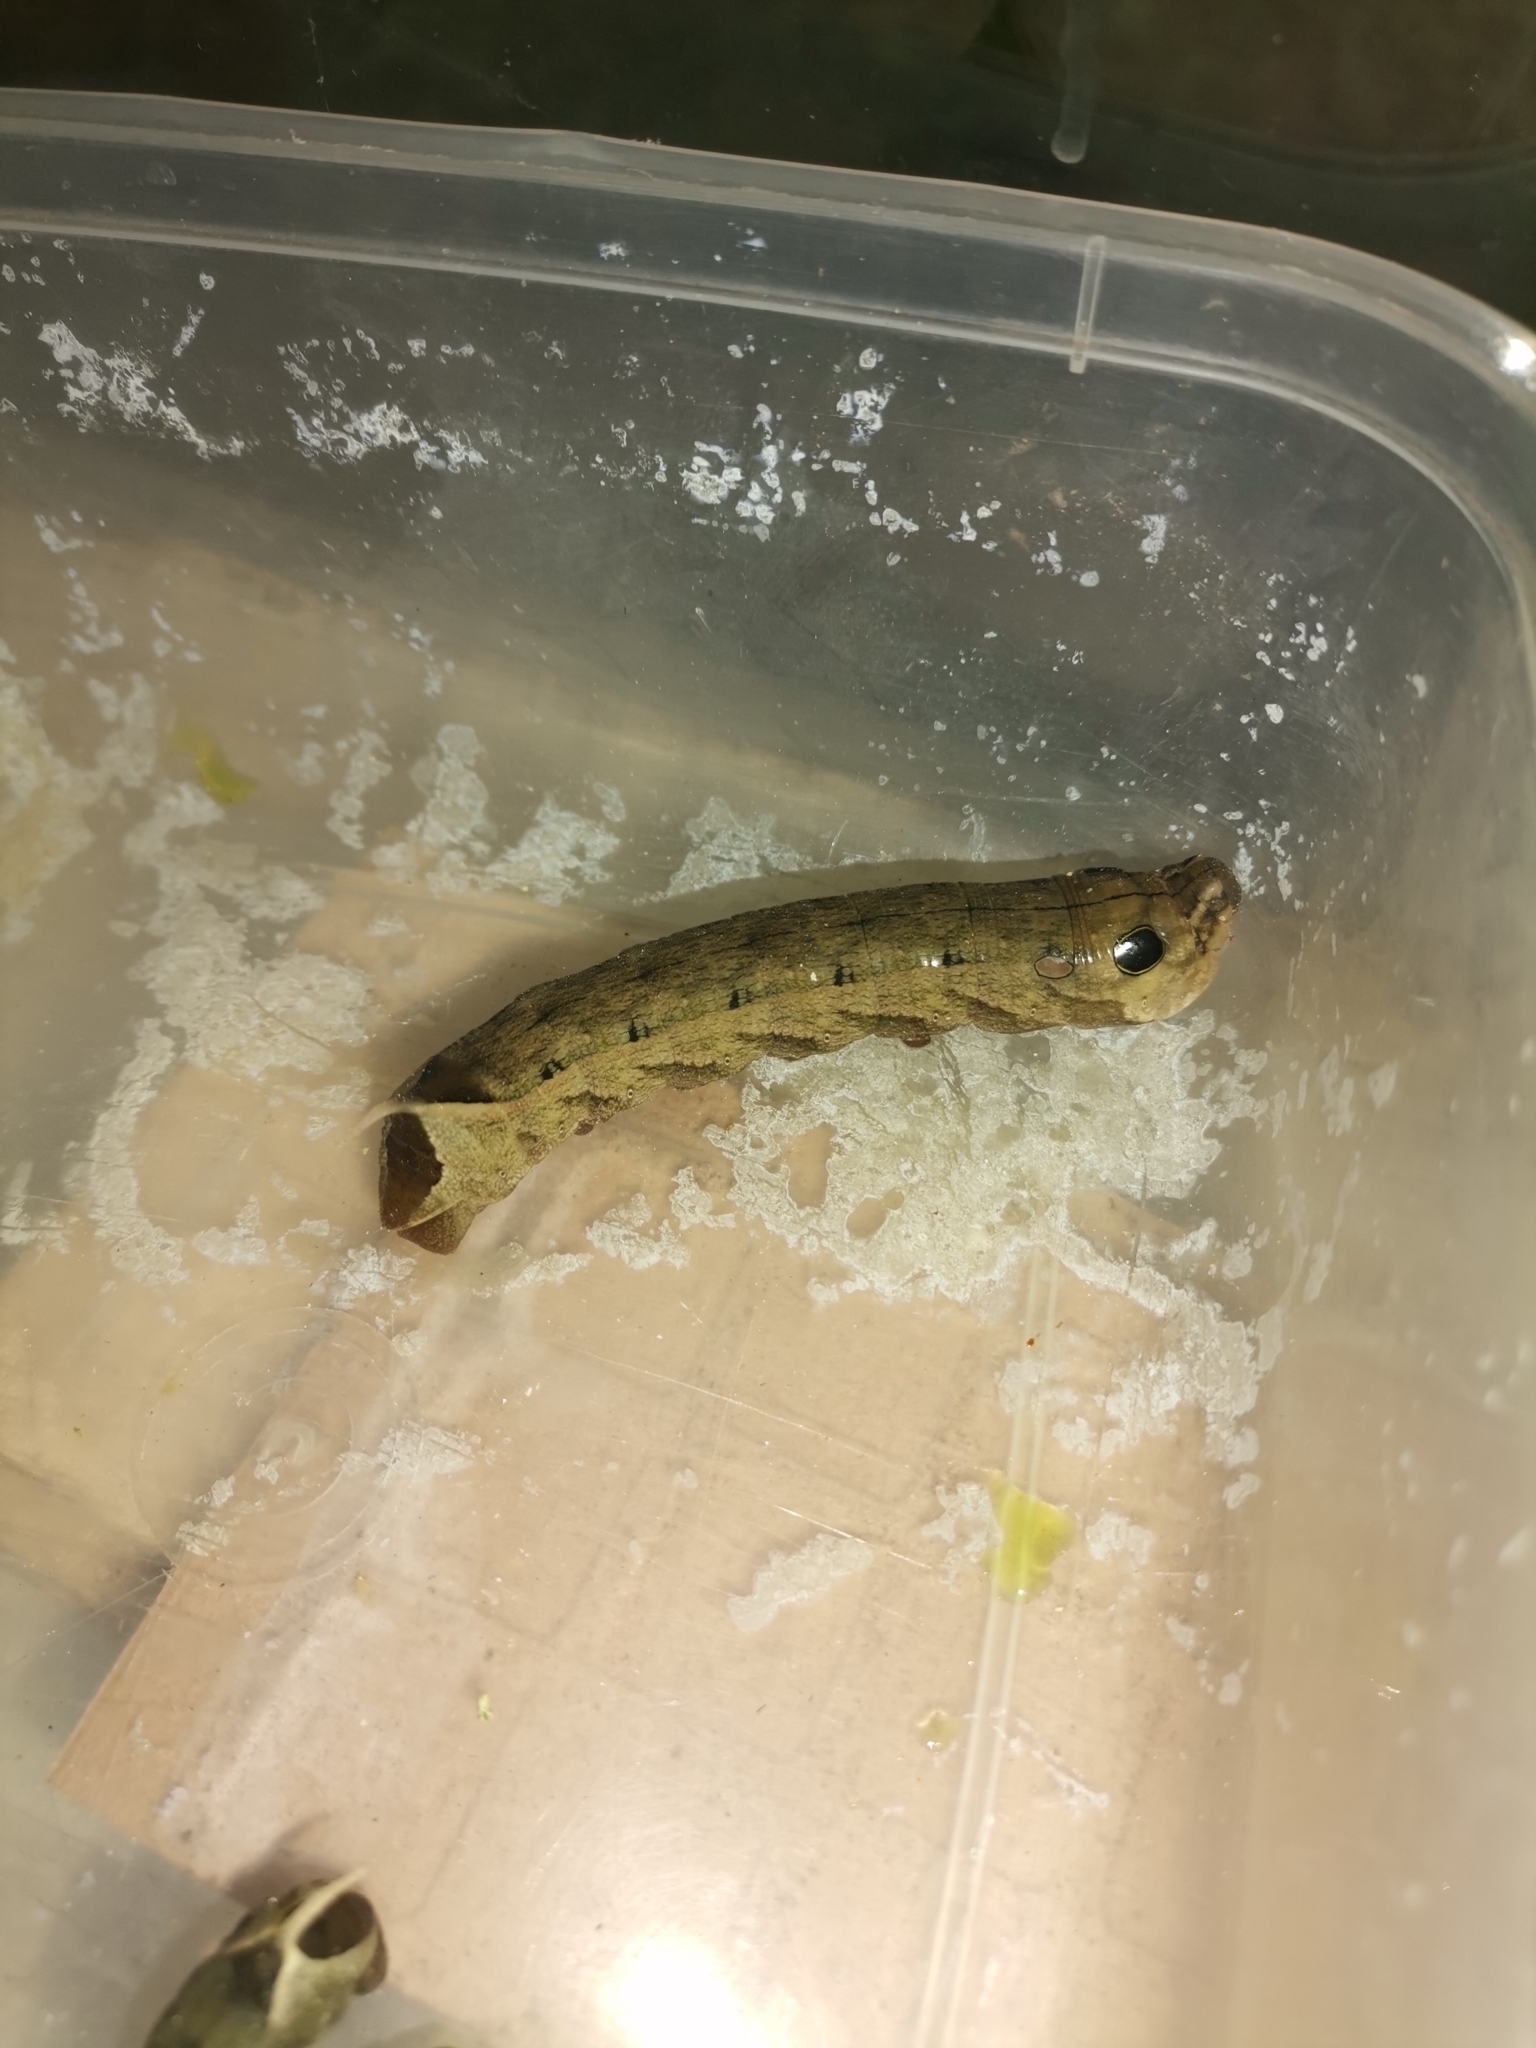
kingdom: Animalia
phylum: Arthropoda
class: Insecta
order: Lepidoptera
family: Sphingidae
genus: Hippotion
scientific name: Hippotion eson
